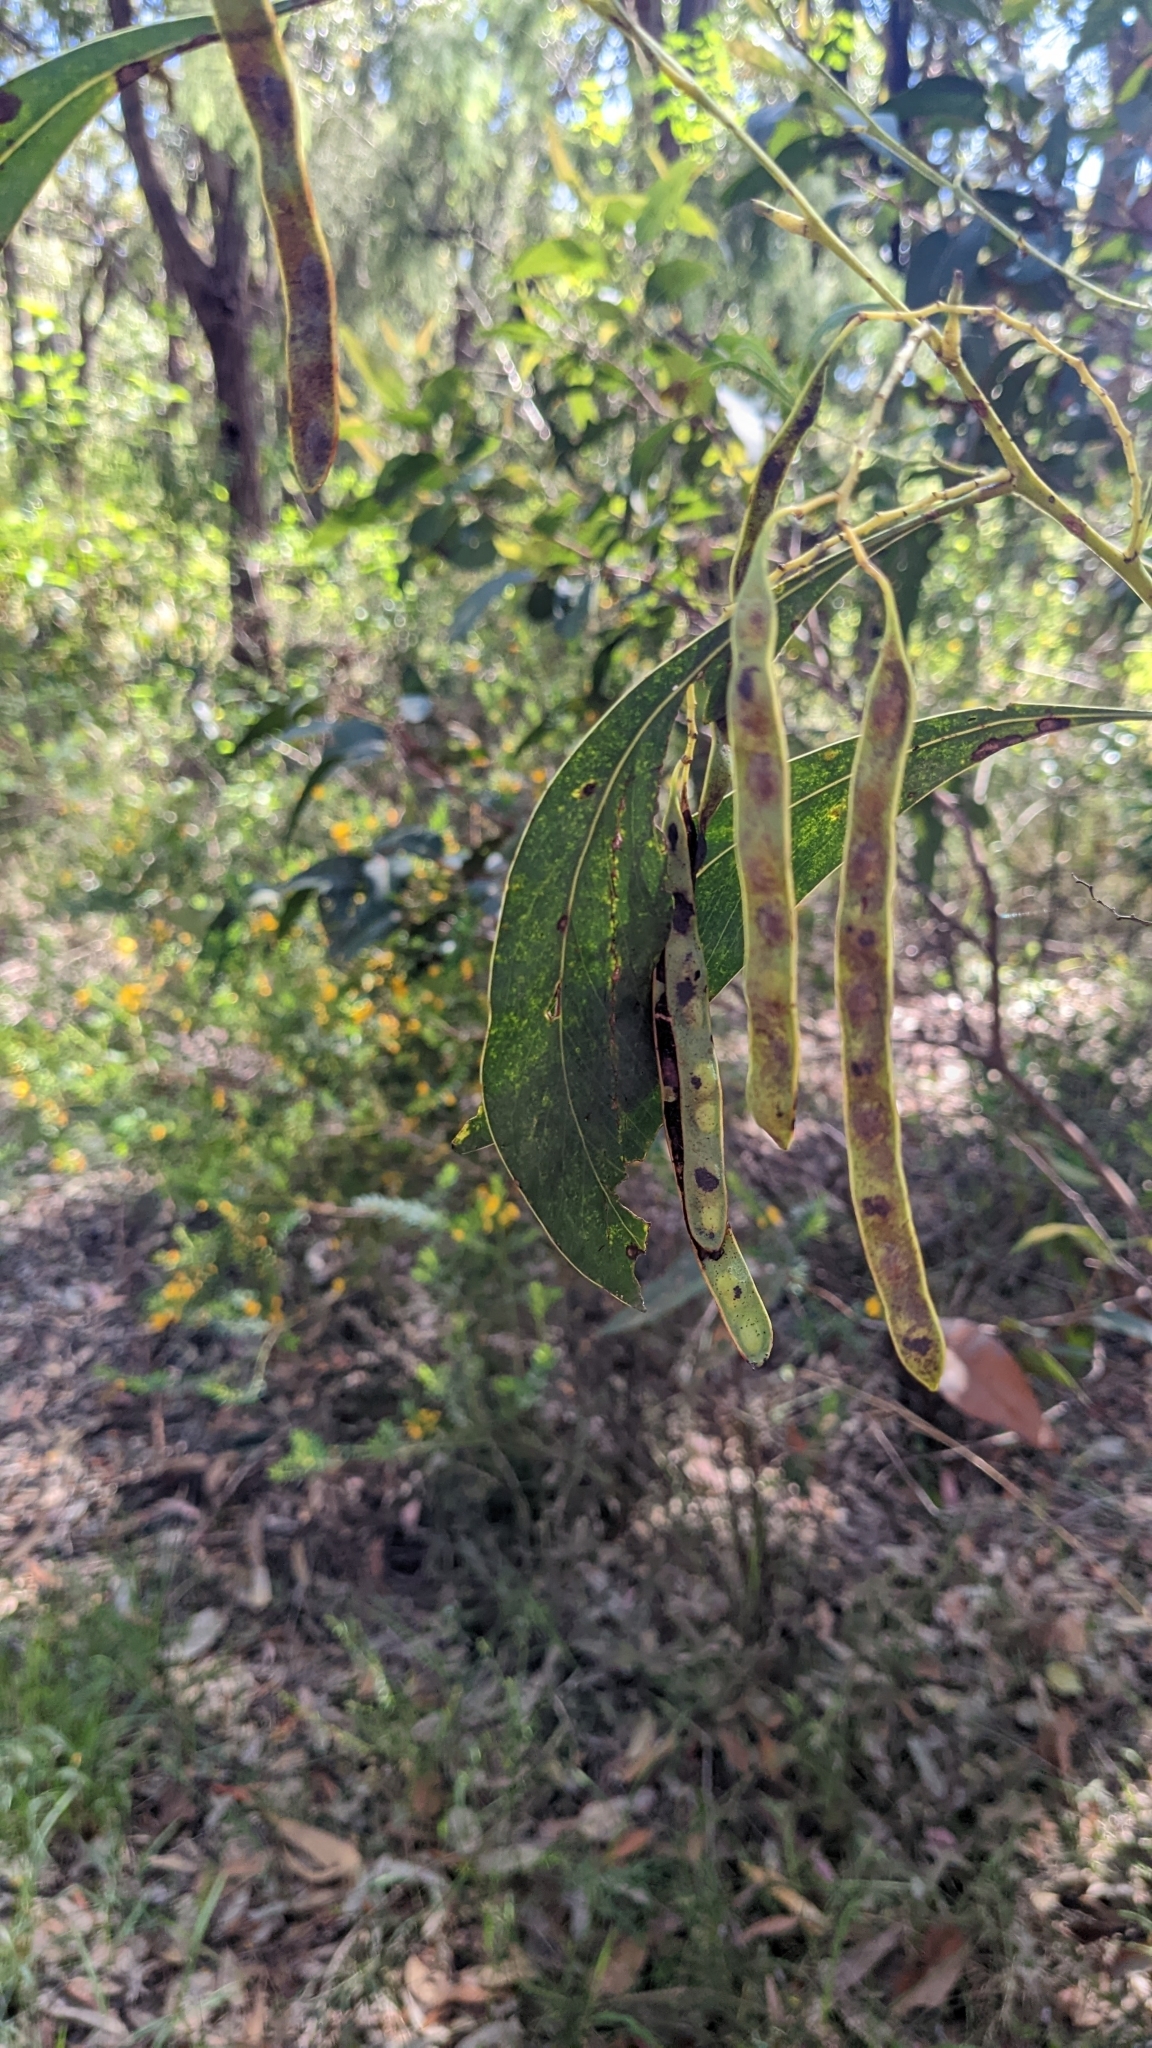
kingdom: Plantae
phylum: Tracheophyta
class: Magnoliopsida
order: Fabales
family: Fabaceae
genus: Acacia
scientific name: Acacia falcata
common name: Burra acacia
